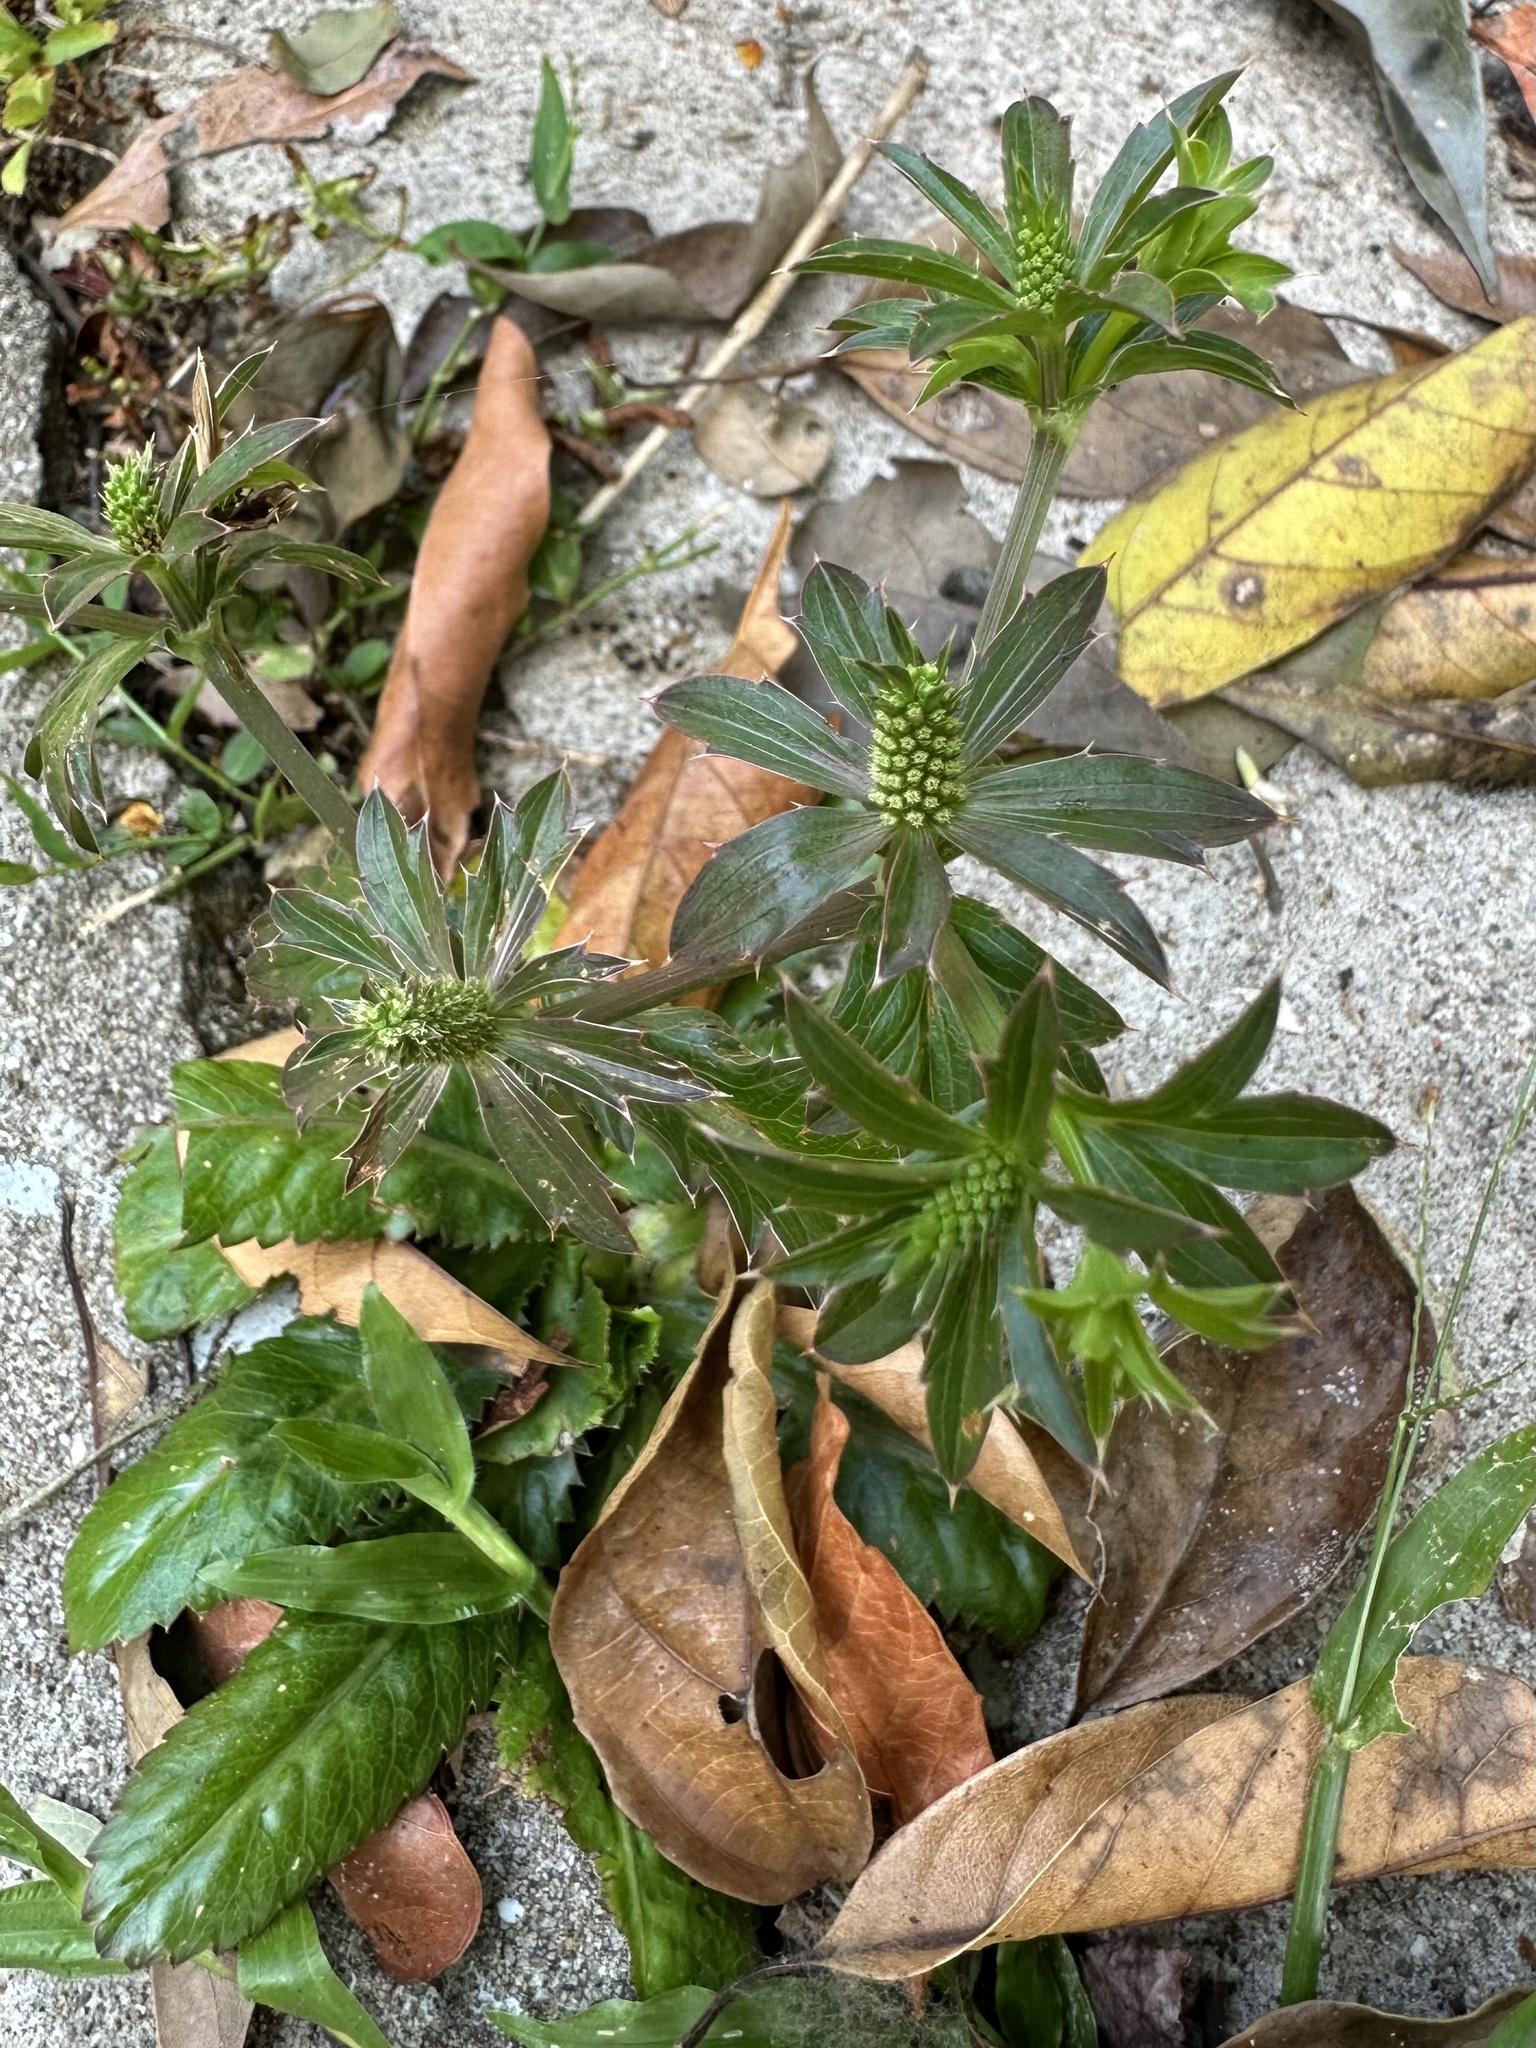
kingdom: Plantae
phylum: Tracheophyta
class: Magnoliopsida
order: Apiales
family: Apiaceae
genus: Eryngium
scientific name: Eryngium foetidum
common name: Fitweed
